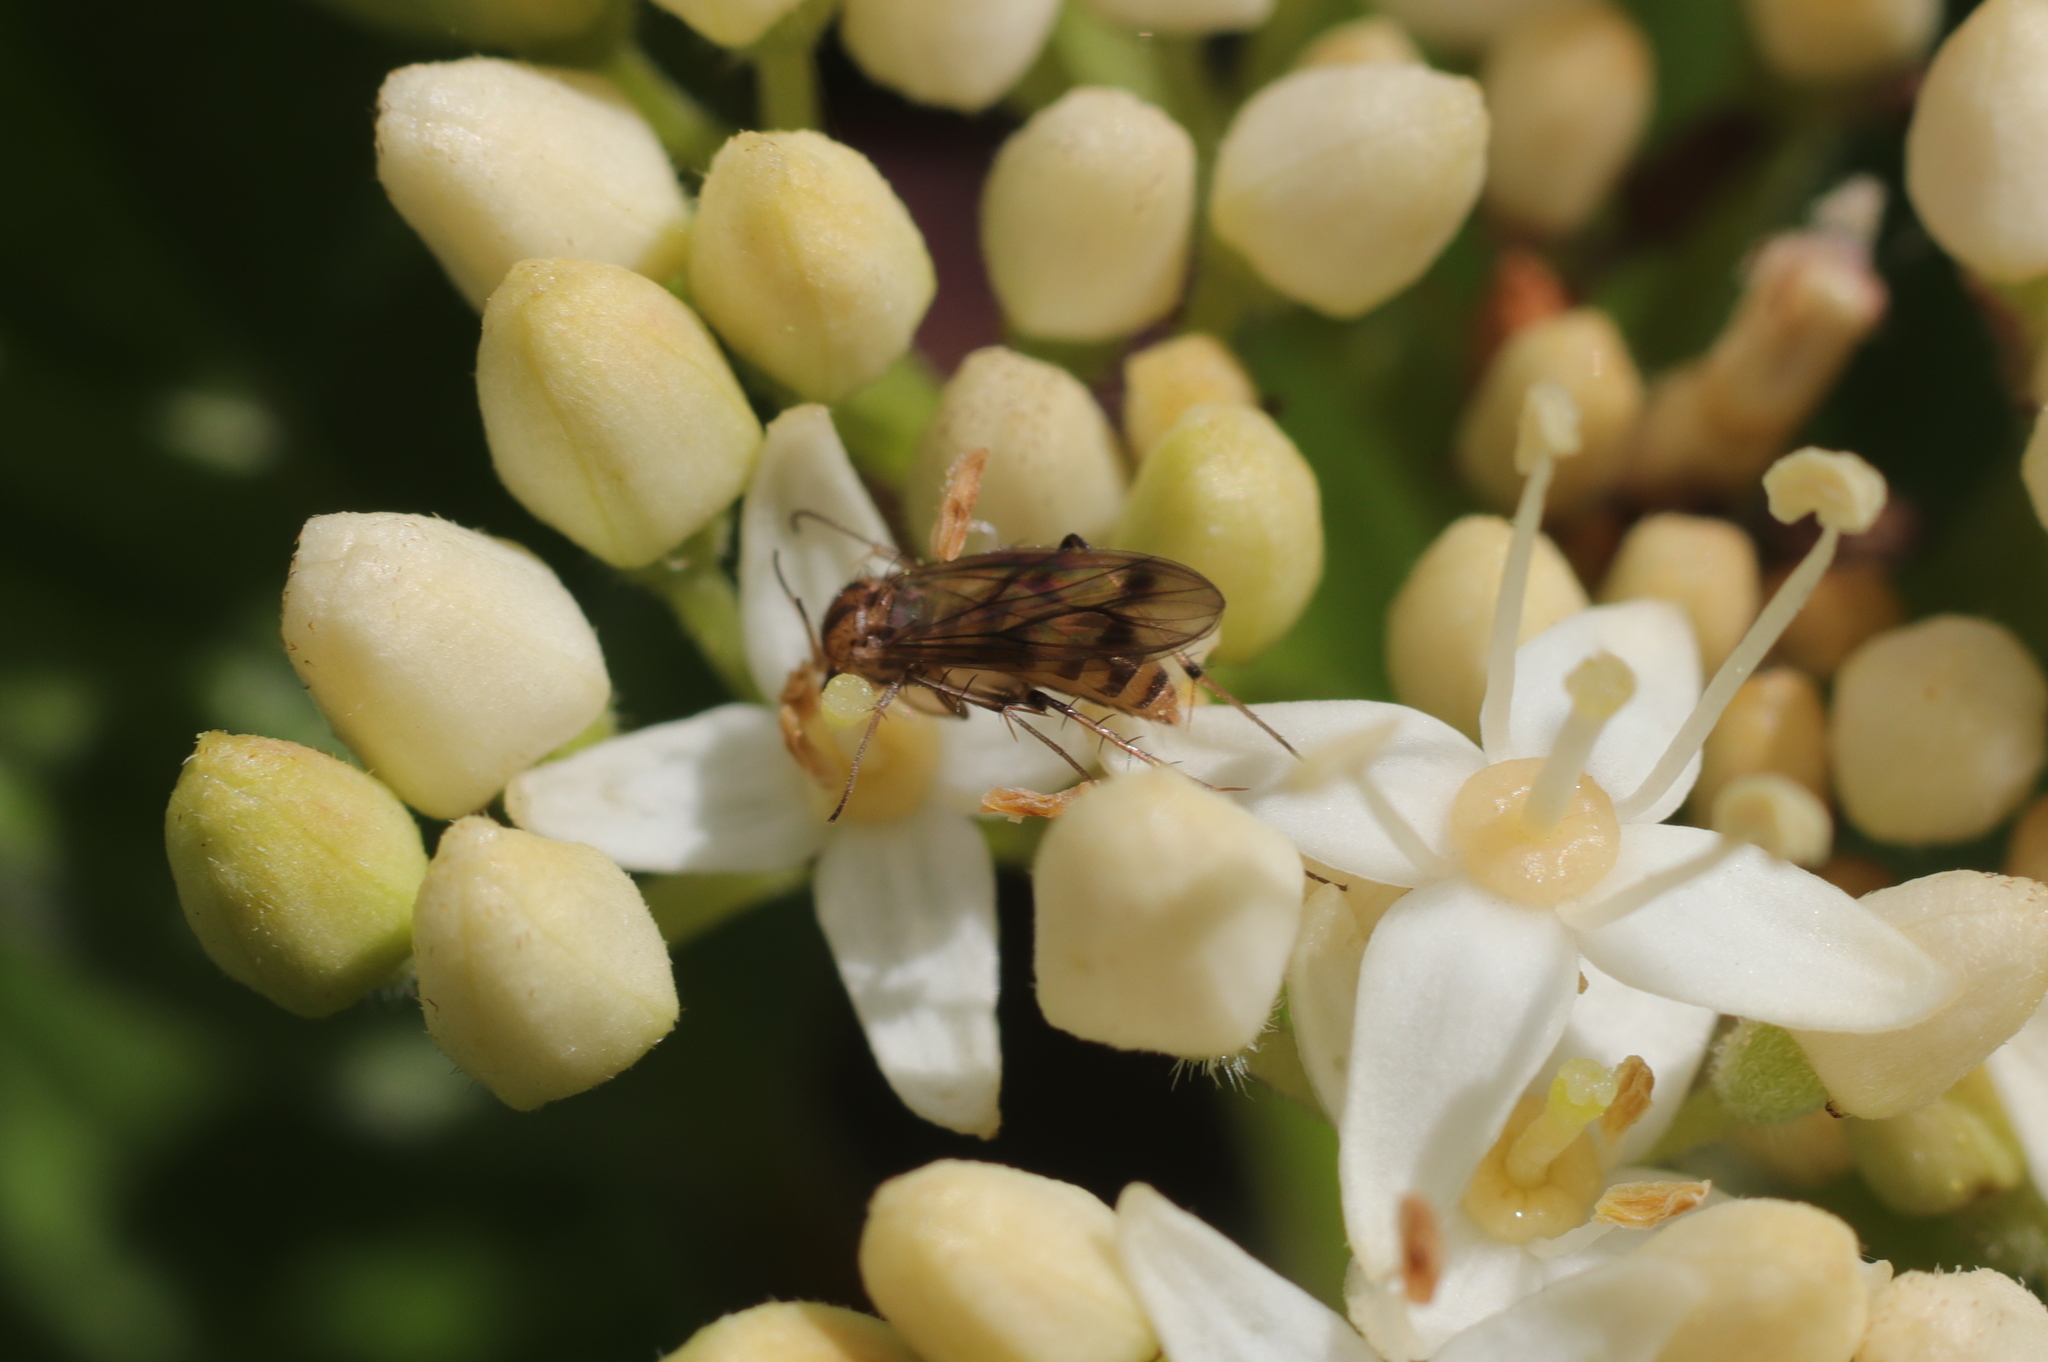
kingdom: Animalia
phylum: Arthropoda
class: Insecta
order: Diptera
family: Mycetophilidae
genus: Anomalomyia
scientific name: Anomalomyia guttata
